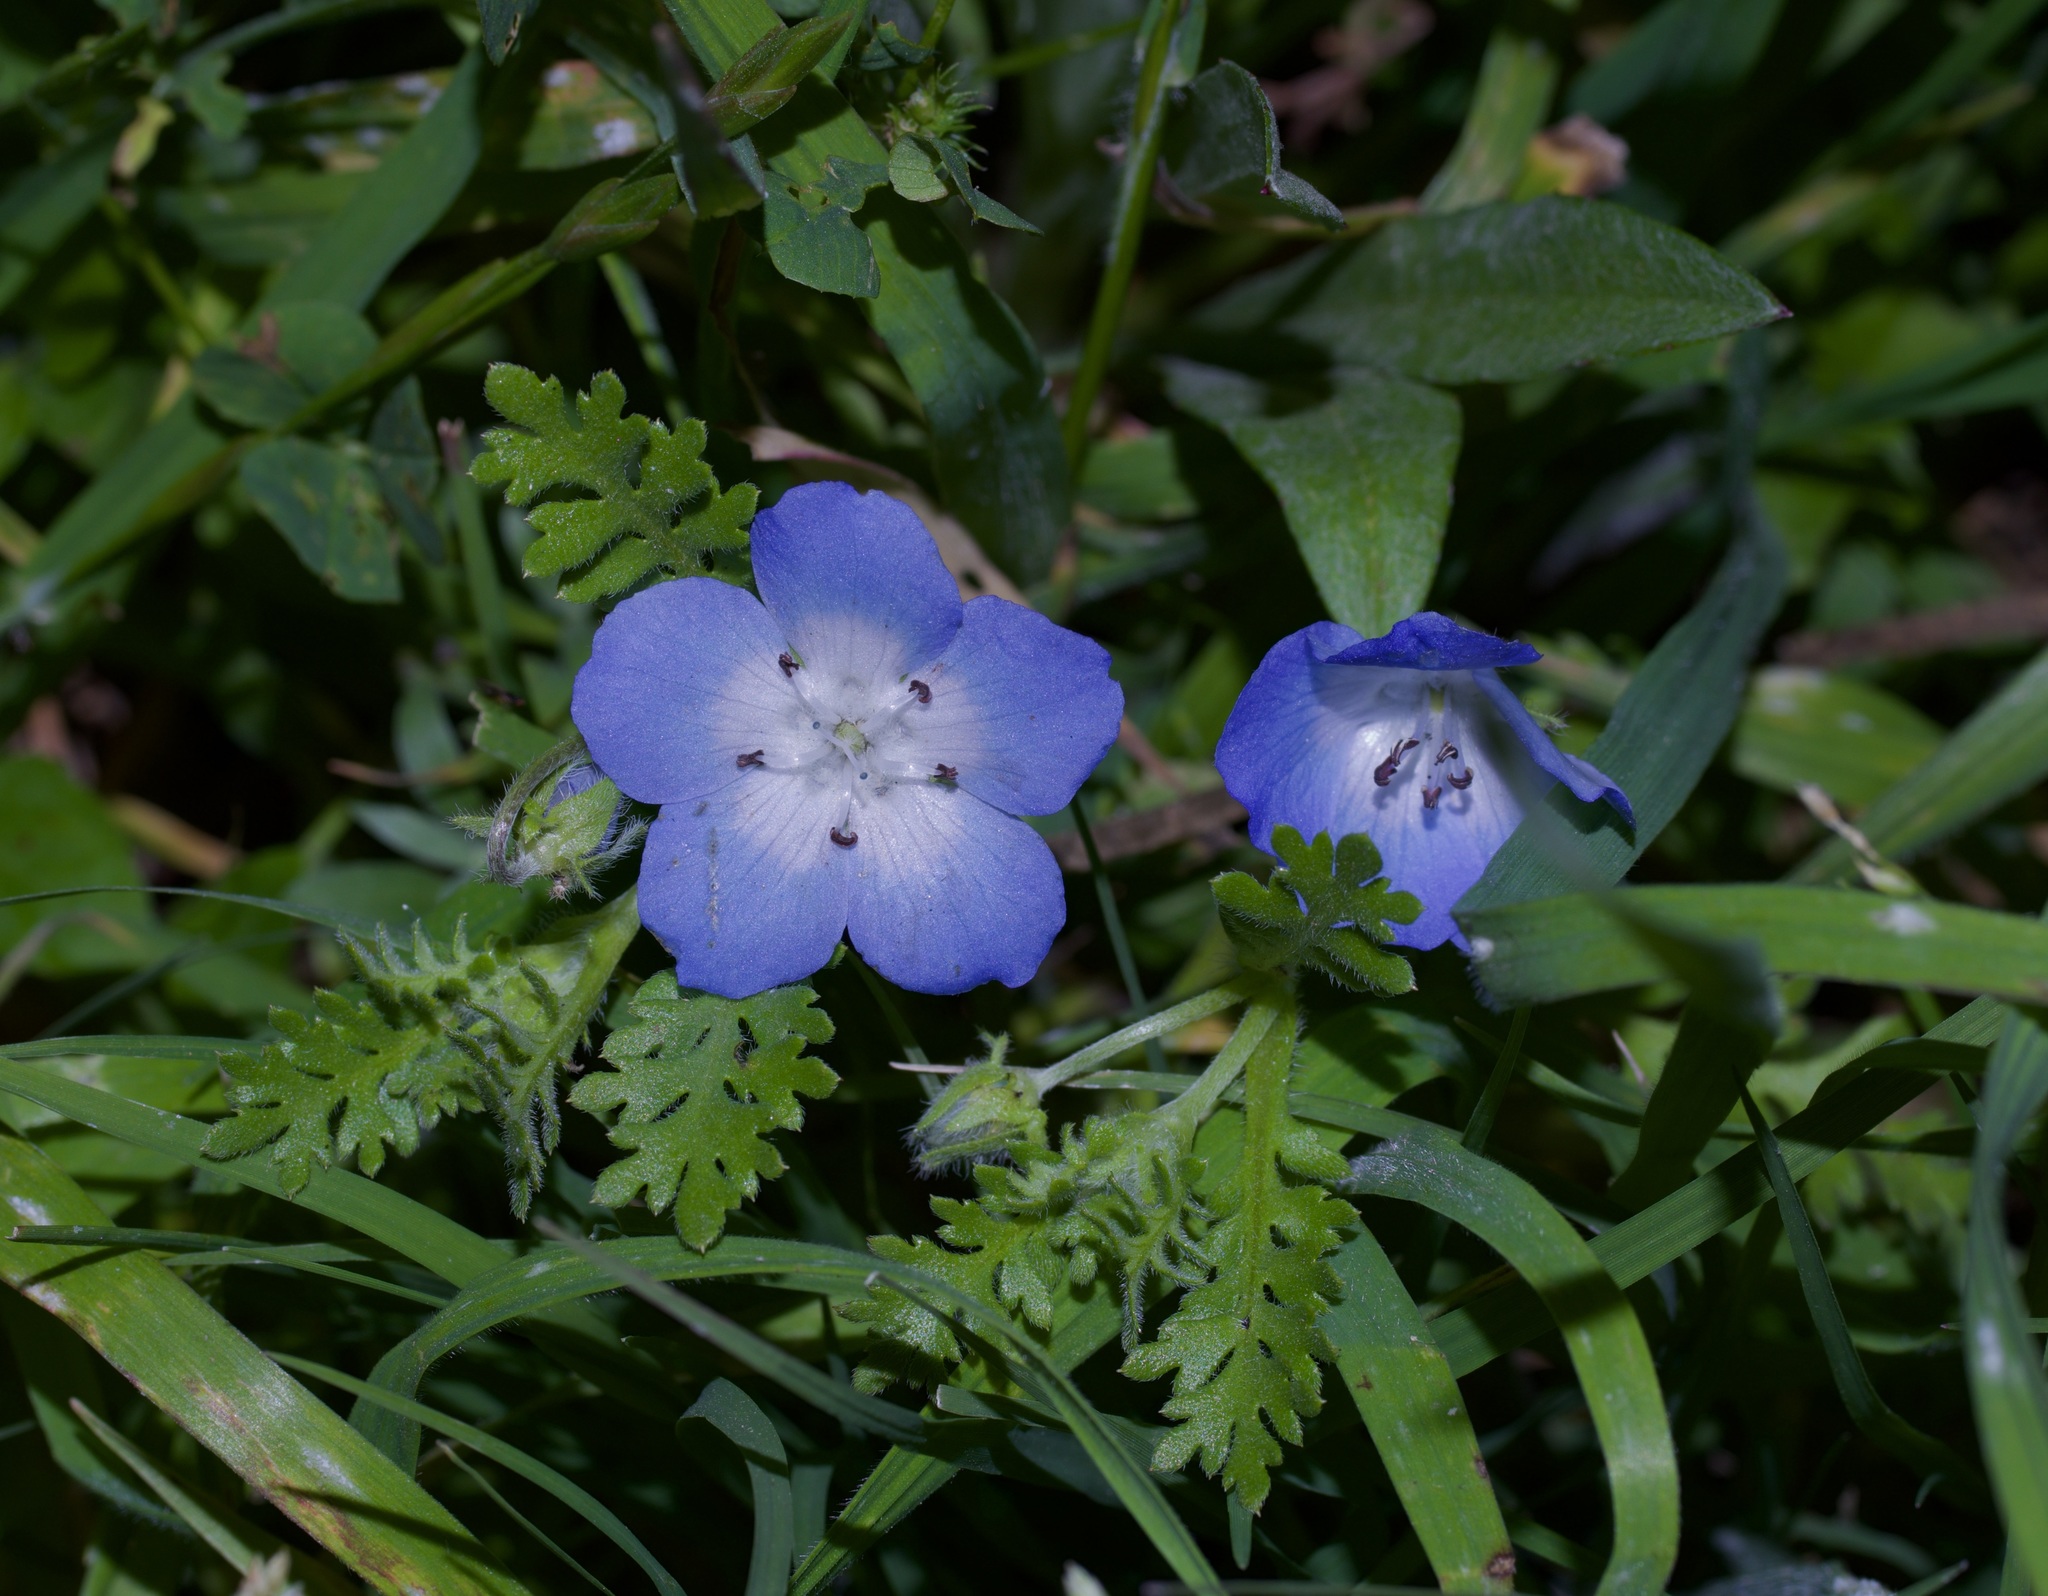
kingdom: Plantae
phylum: Tracheophyta
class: Magnoliopsida
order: Boraginales
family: Hydrophyllaceae
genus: Nemophila
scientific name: Nemophila phacelioides
